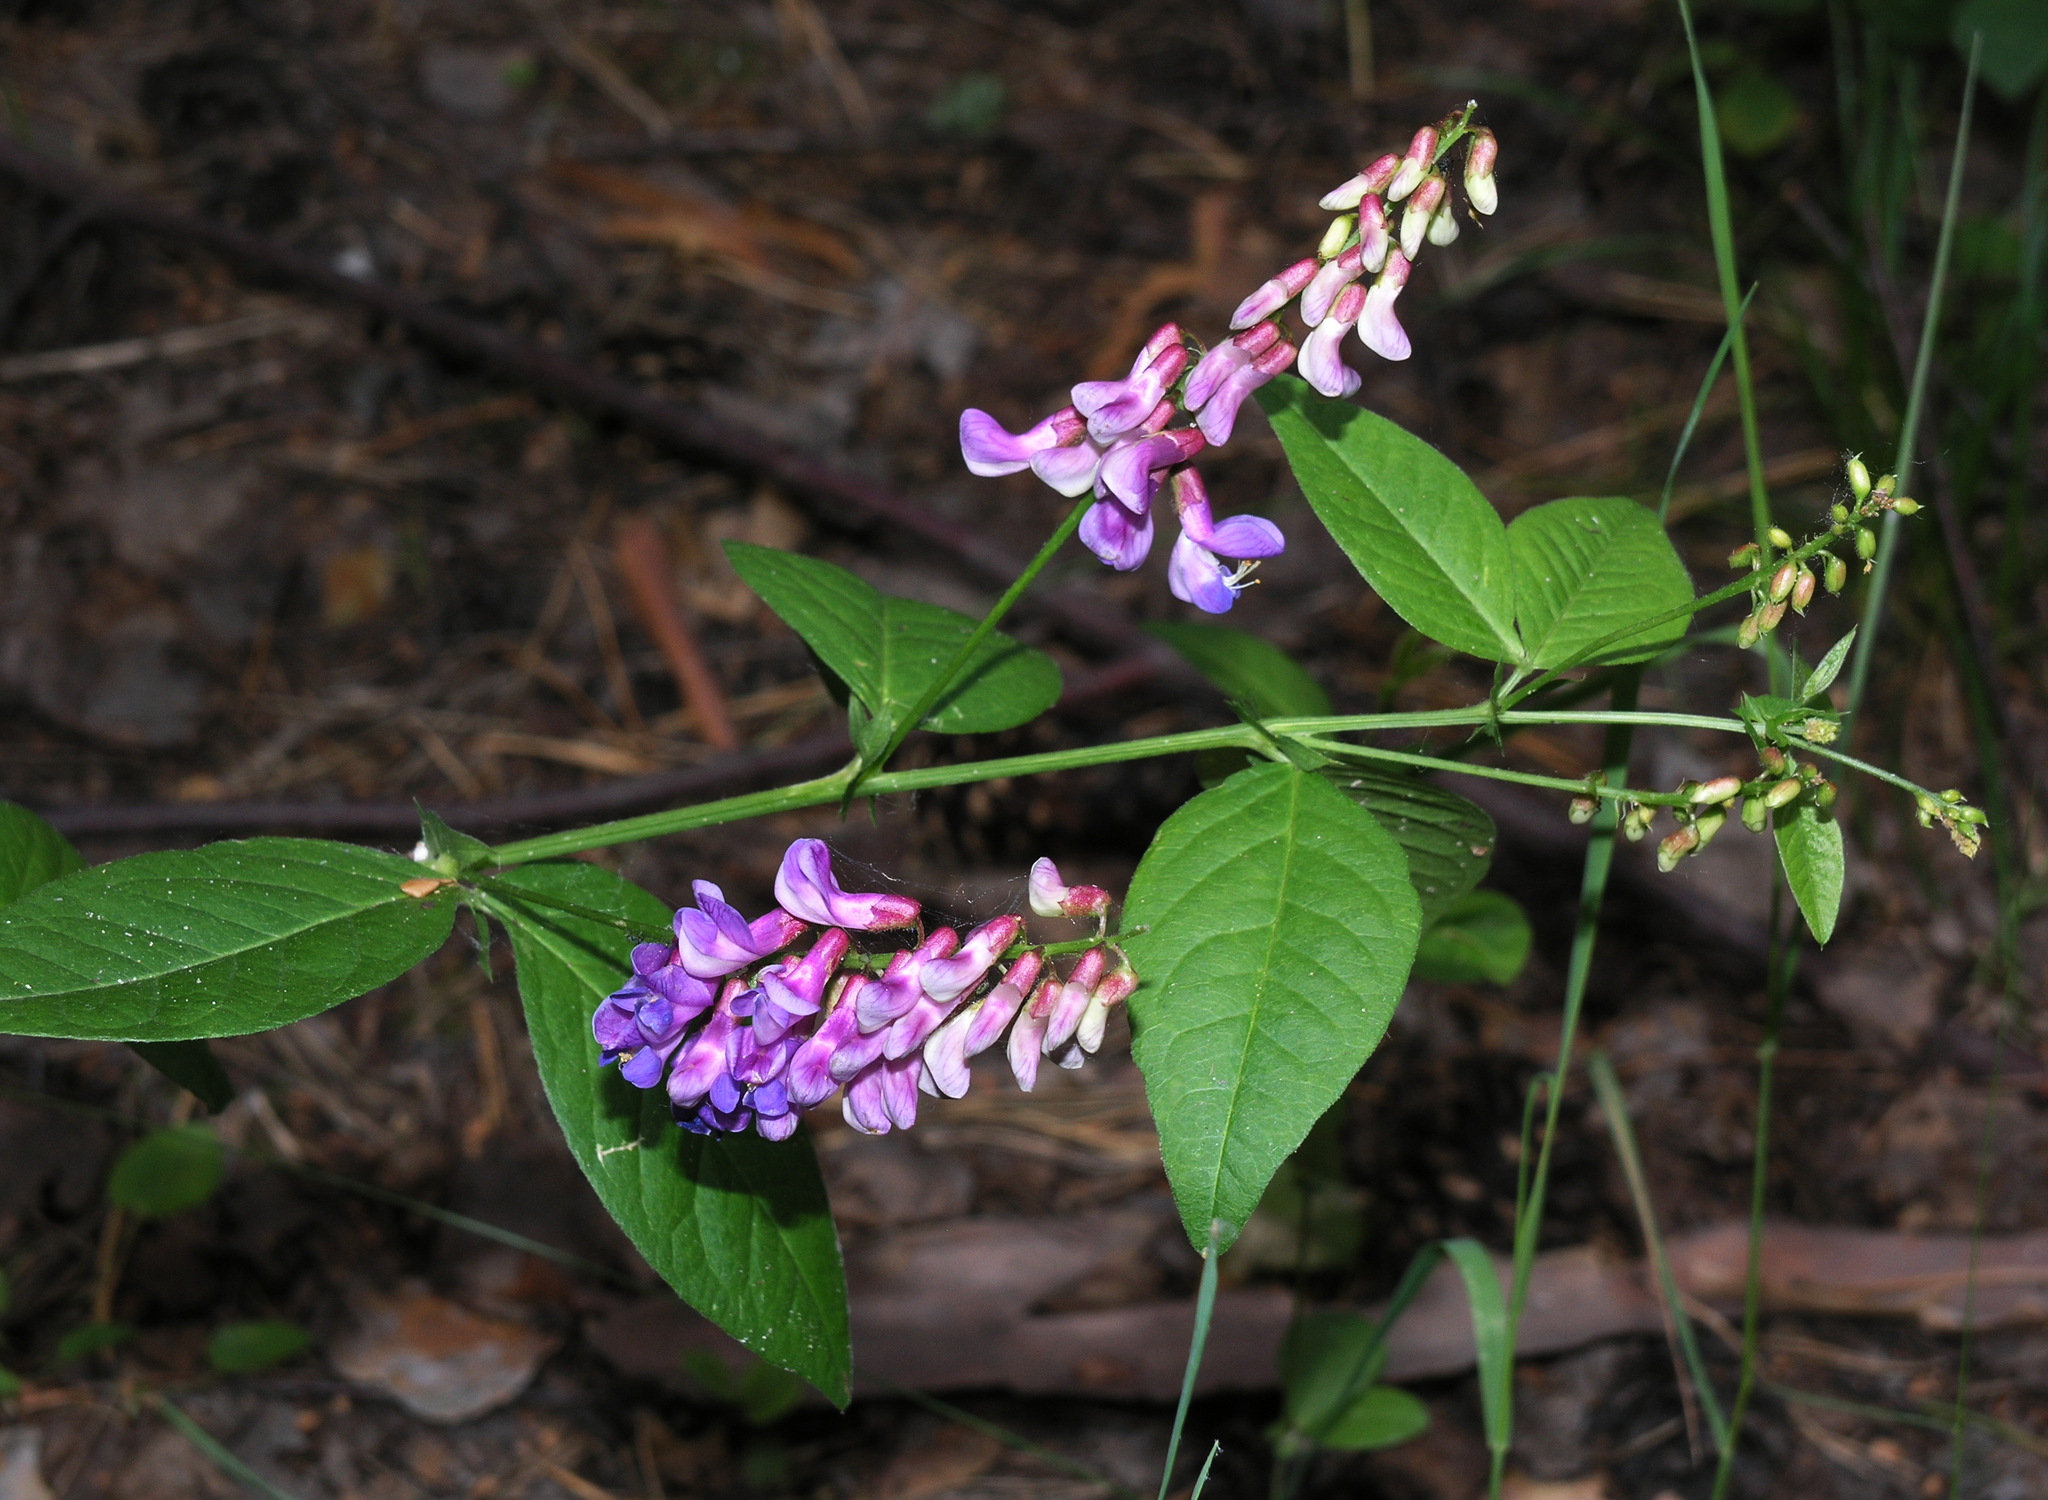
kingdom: Plantae
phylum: Tracheophyta
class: Magnoliopsida
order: Fabales
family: Fabaceae
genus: Vicia
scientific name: Vicia unijuga
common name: Two-leaf vetch
